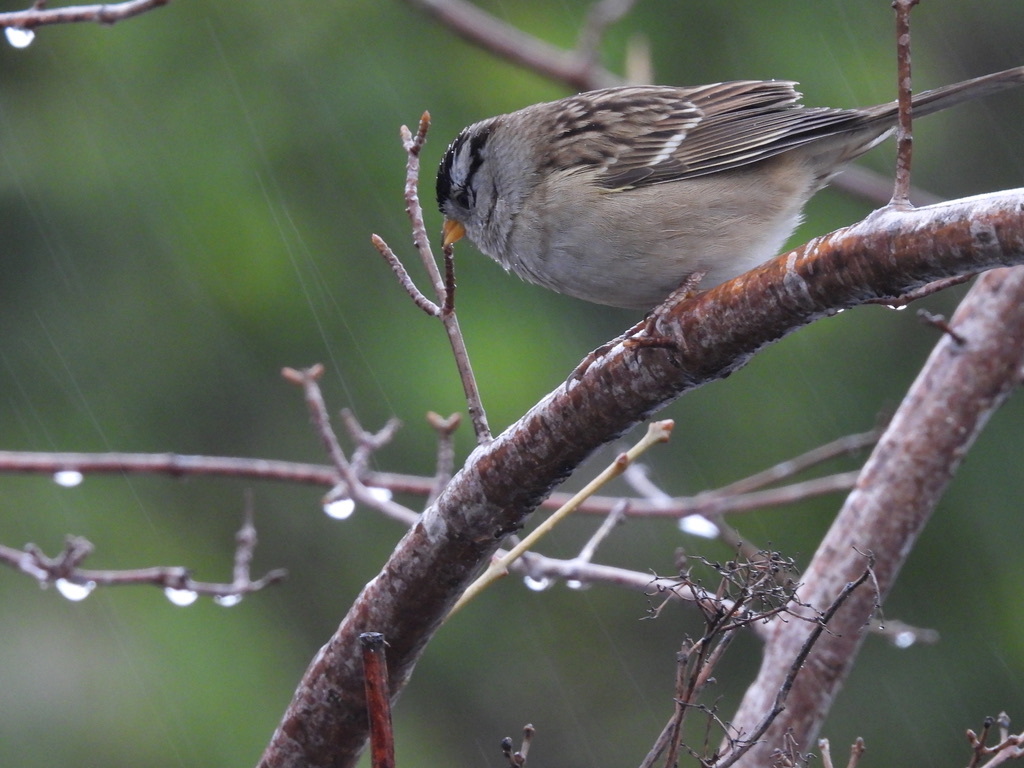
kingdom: Animalia
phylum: Chordata
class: Aves
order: Passeriformes
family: Passerellidae
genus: Zonotrichia
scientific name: Zonotrichia leucophrys
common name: White-crowned sparrow
